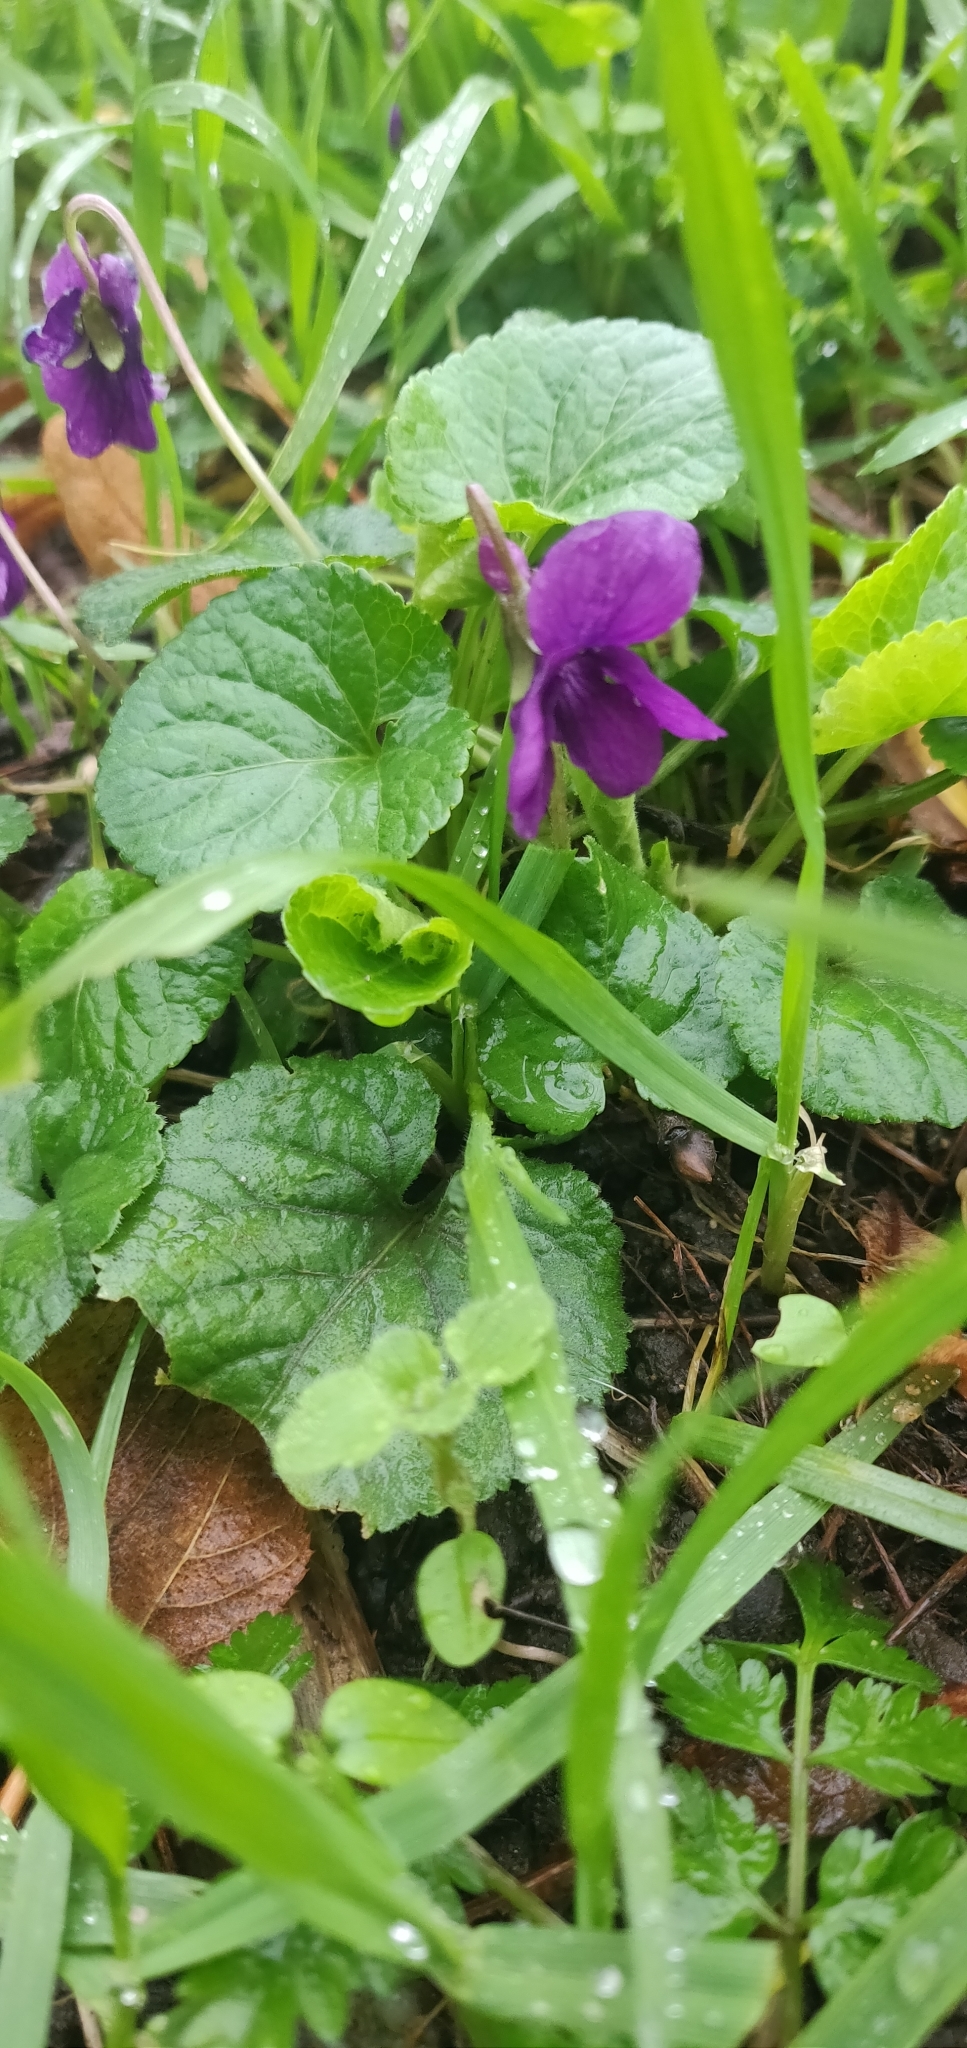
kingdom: Plantae
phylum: Tracheophyta
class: Magnoliopsida
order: Malpighiales
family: Violaceae
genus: Viola
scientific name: Viola odorata
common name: Sweet violet
